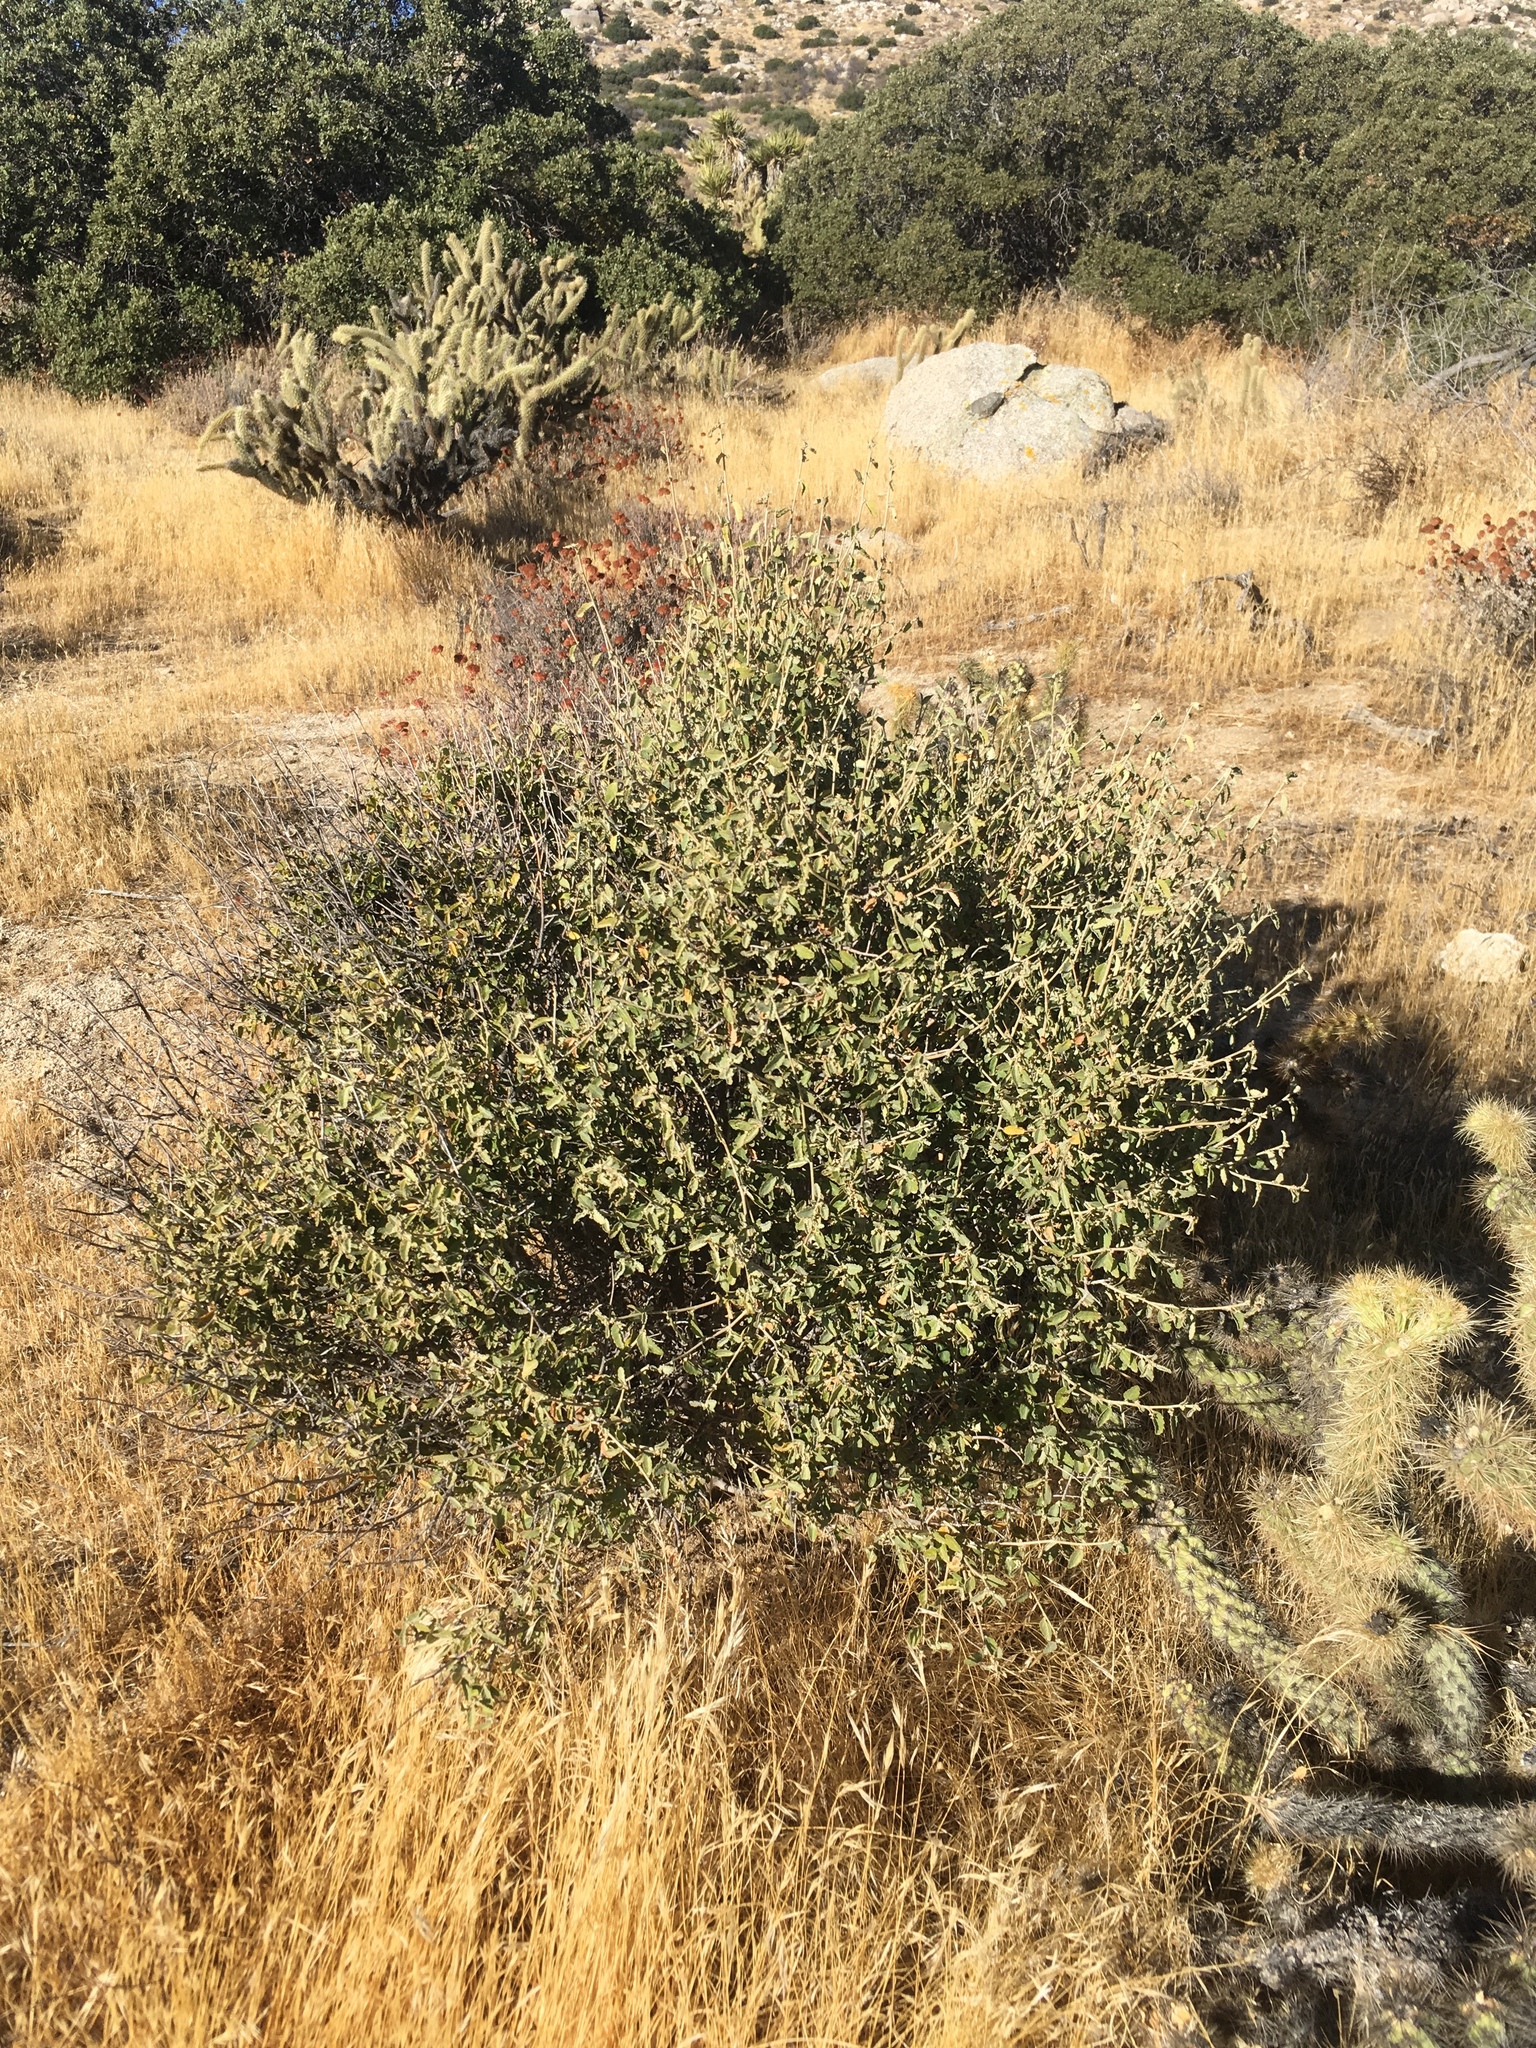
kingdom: Plantae
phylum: Tracheophyta
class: Magnoliopsida
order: Malpighiales
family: Euphorbiaceae
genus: Bernardia
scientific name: Bernardia incana
